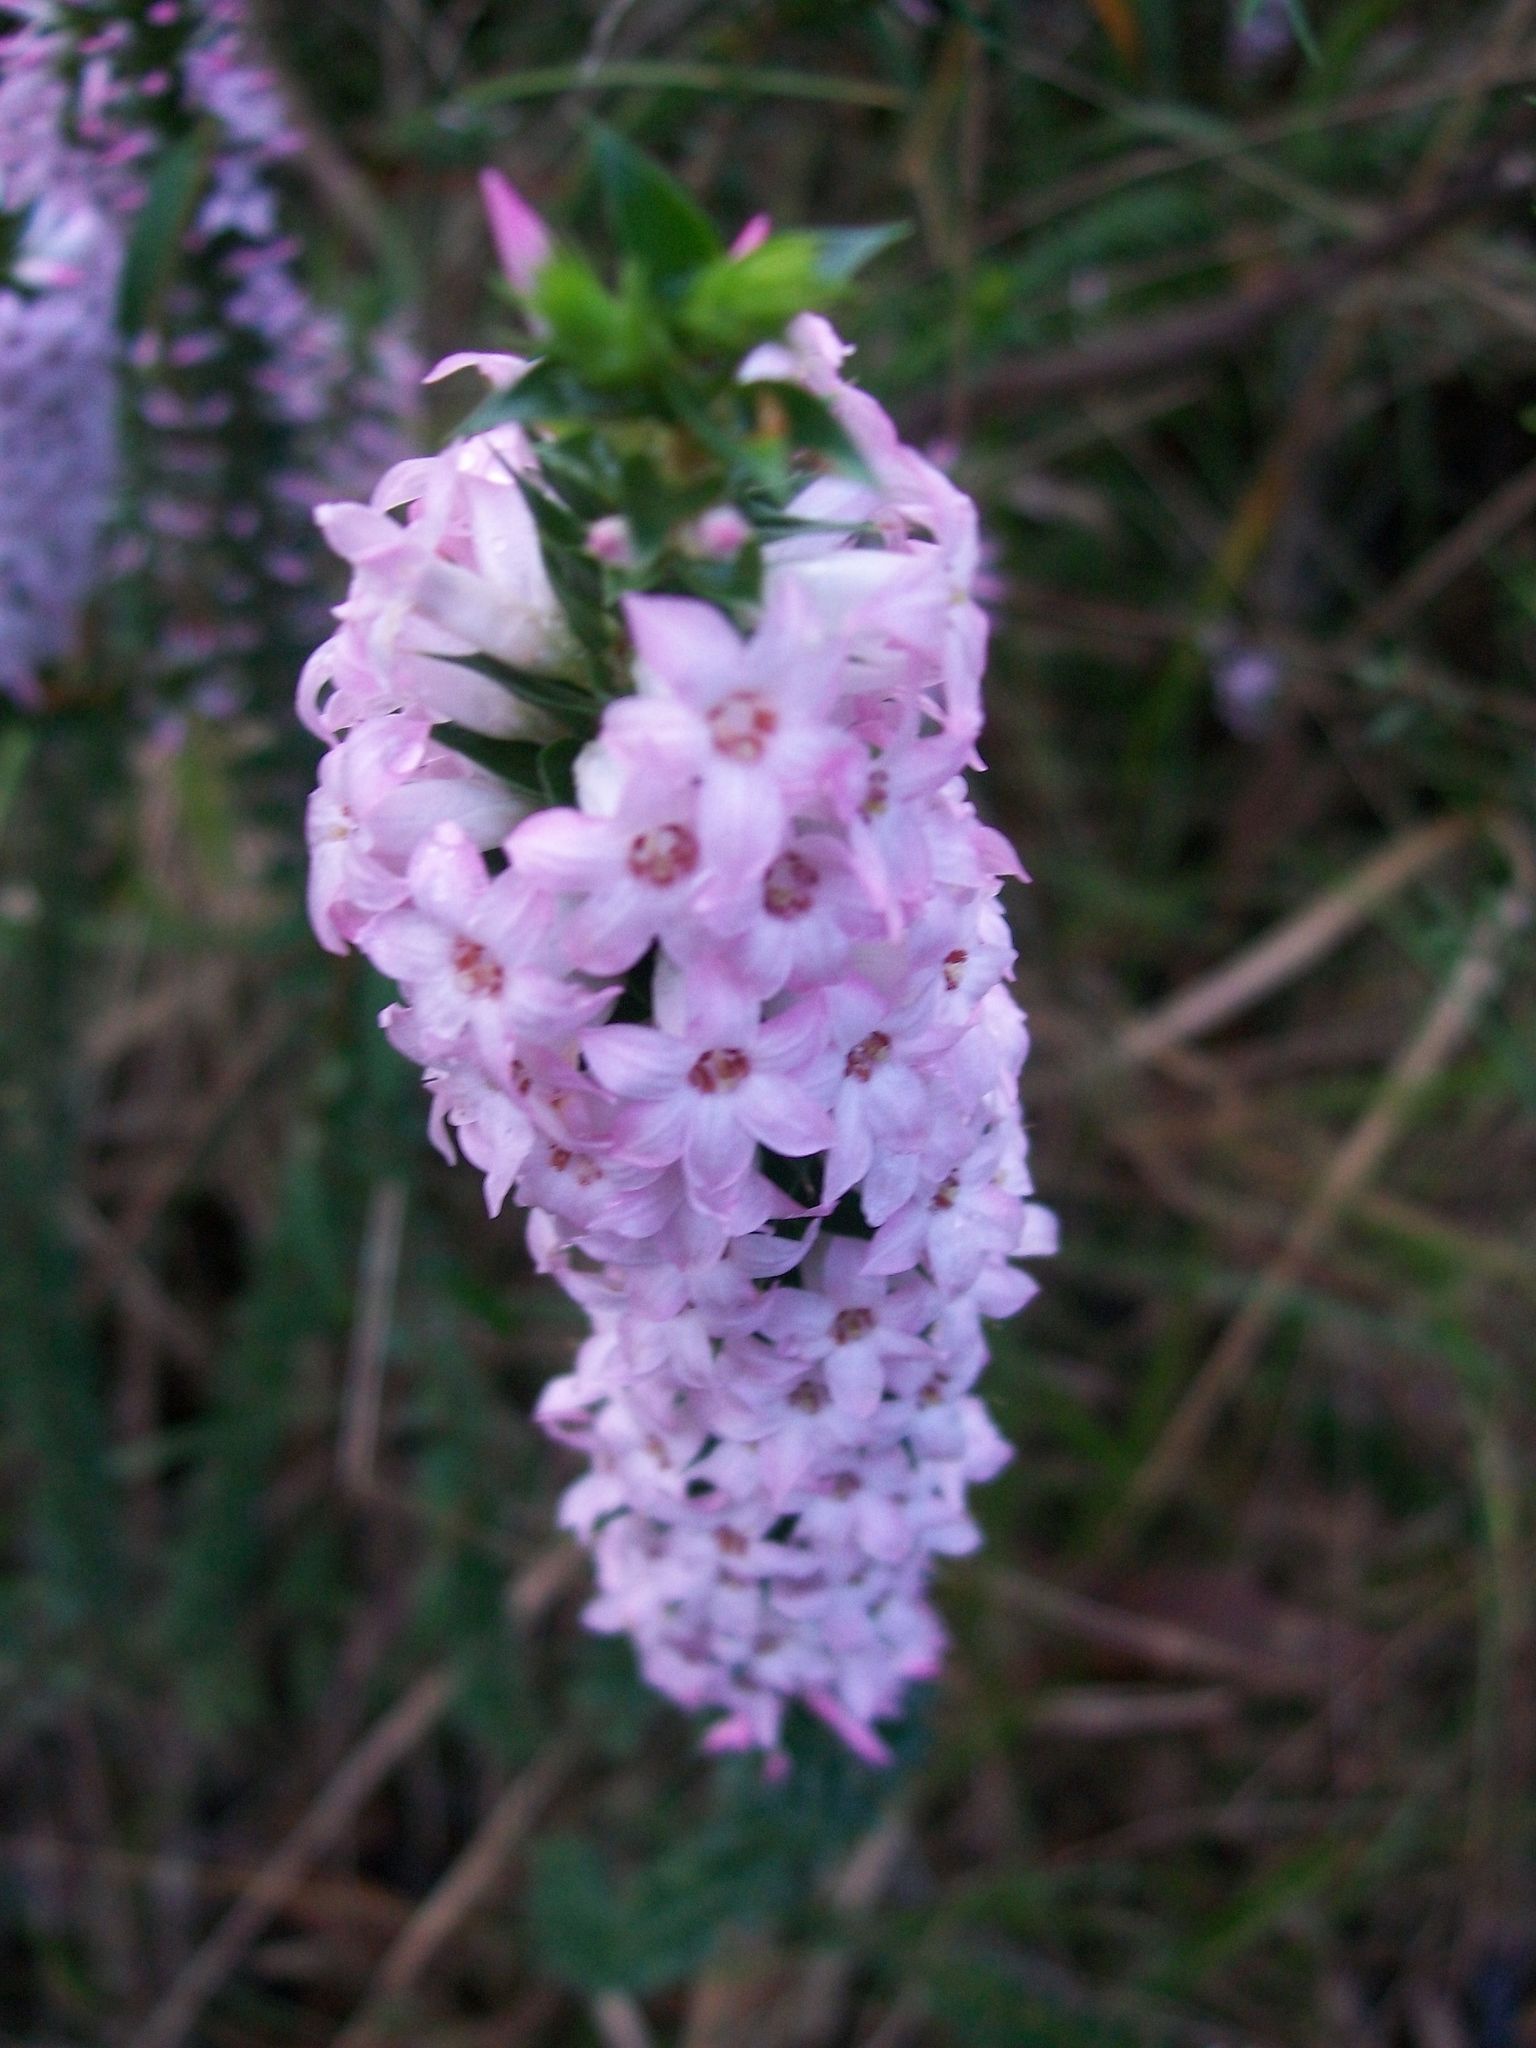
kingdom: Plantae
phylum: Tracheophyta
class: Magnoliopsida
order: Ericales
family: Ericaceae
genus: Woollsia
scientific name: Woollsia pungens
